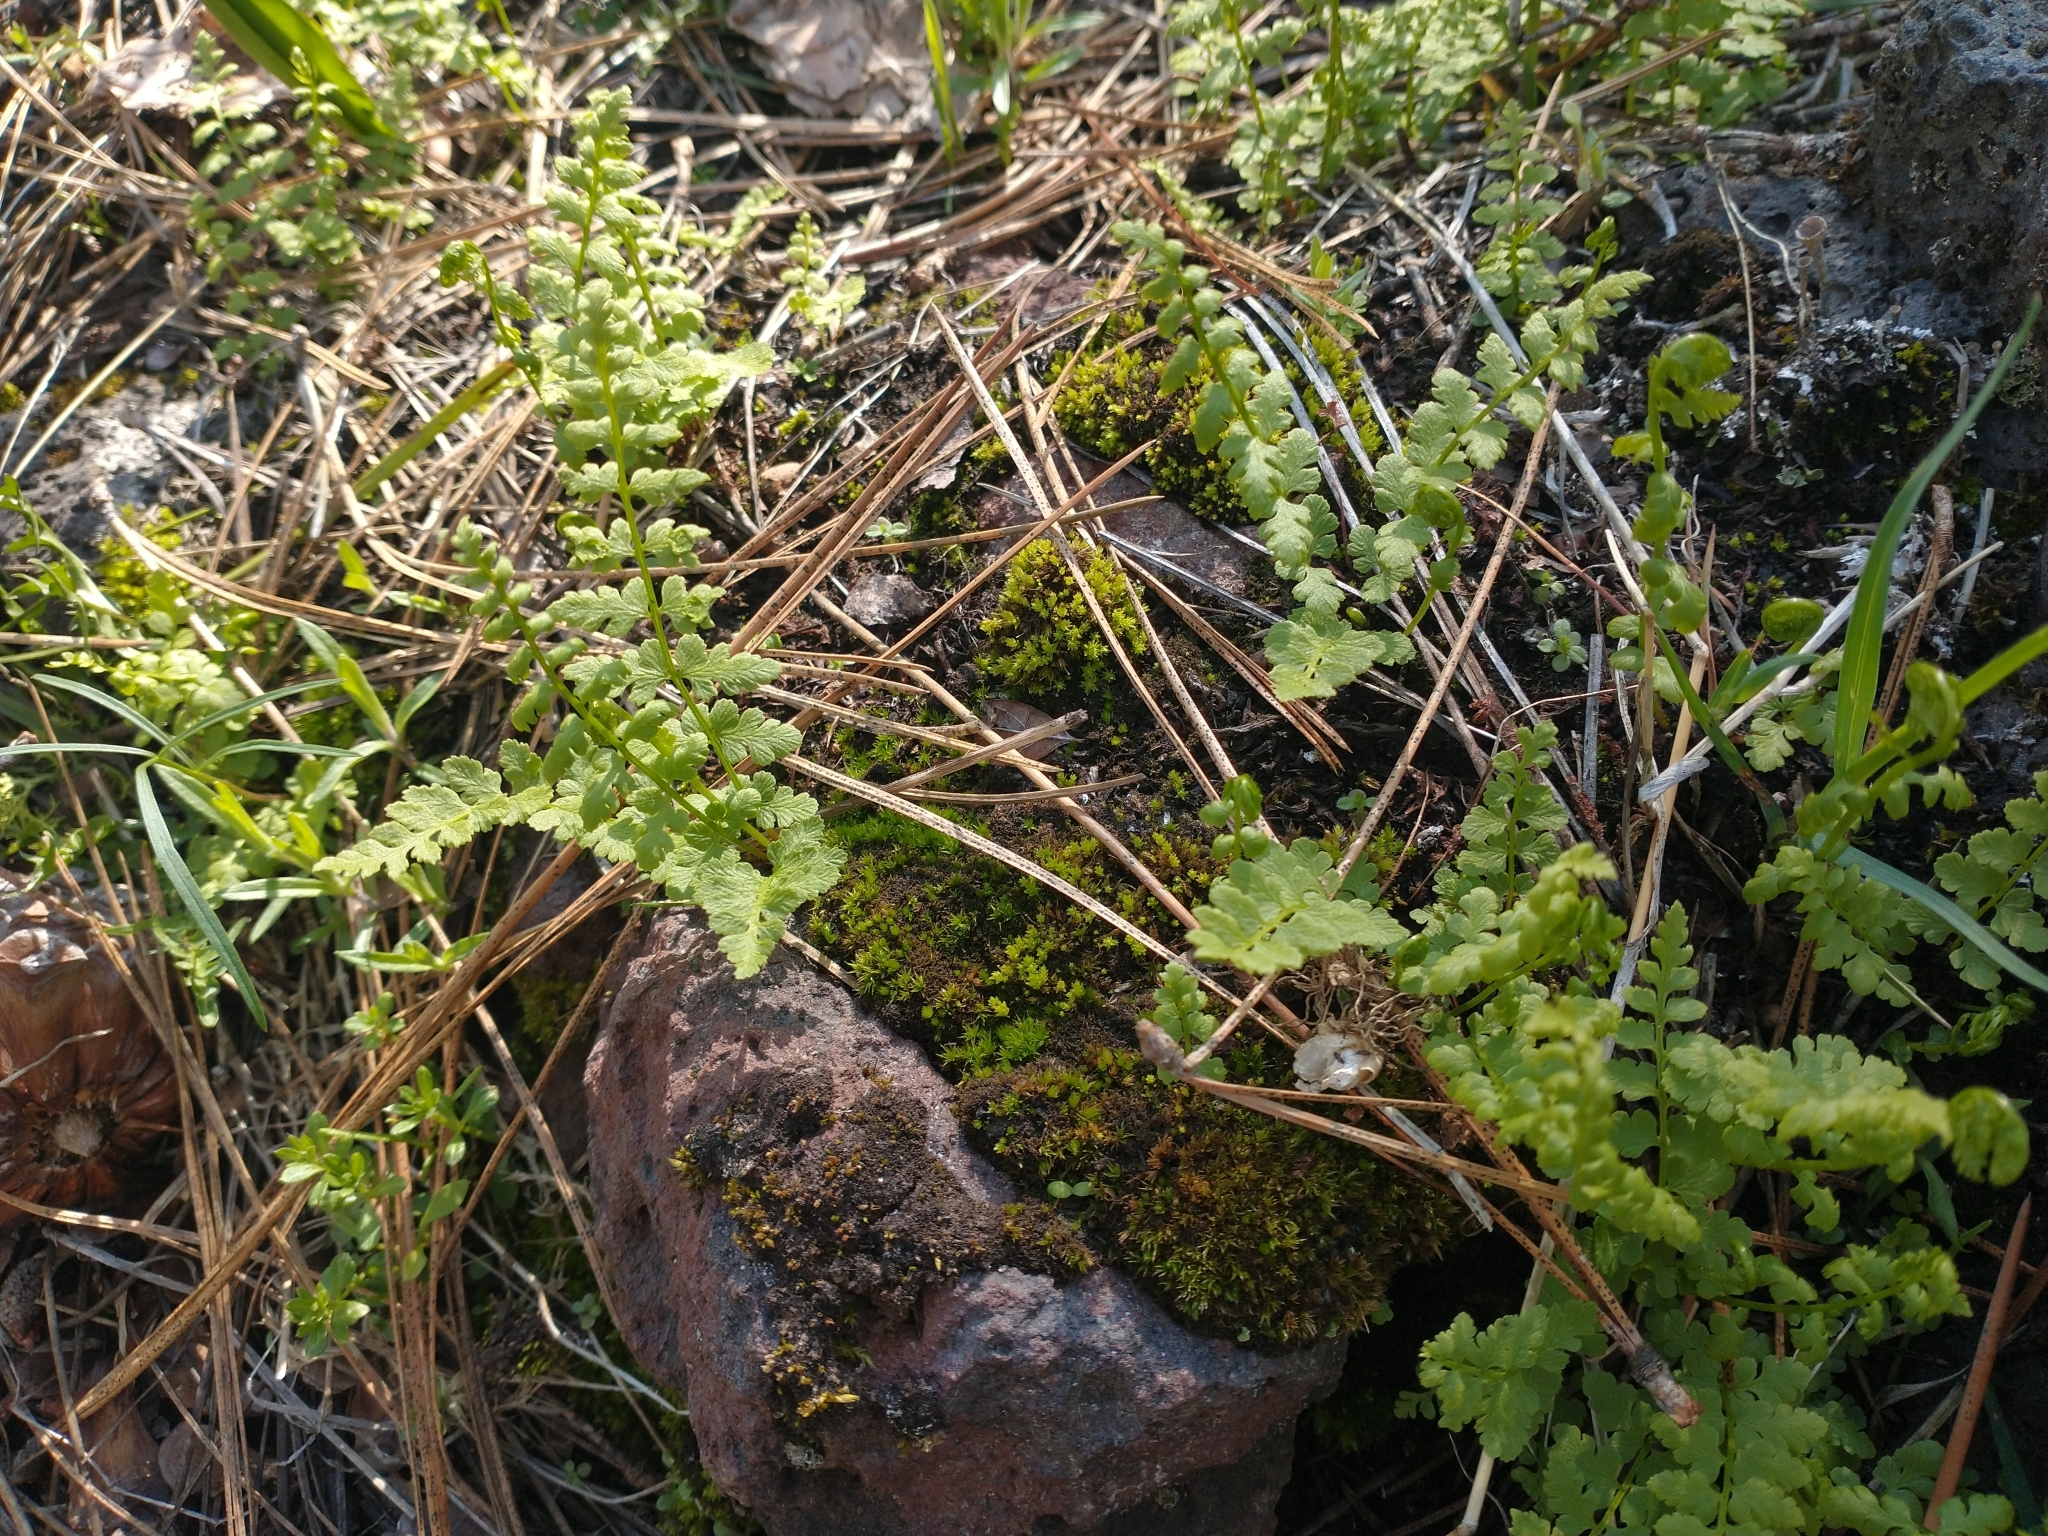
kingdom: Plantae
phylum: Tracheophyta
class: Polypodiopsida
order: Polypodiales
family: Woodsiaceae
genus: Physematium
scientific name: Physematium oreganum
